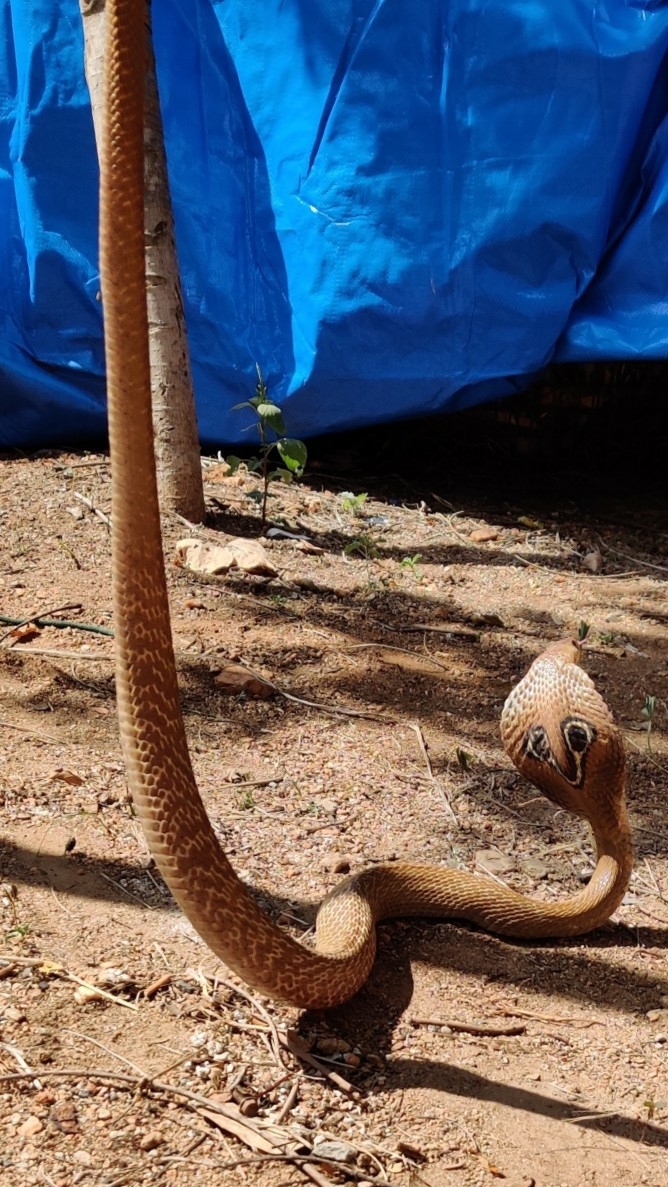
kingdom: Animalia
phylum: Chordata
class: Squamata
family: Elapidae
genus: Naja
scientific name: Naja naja
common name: Indian cobra
